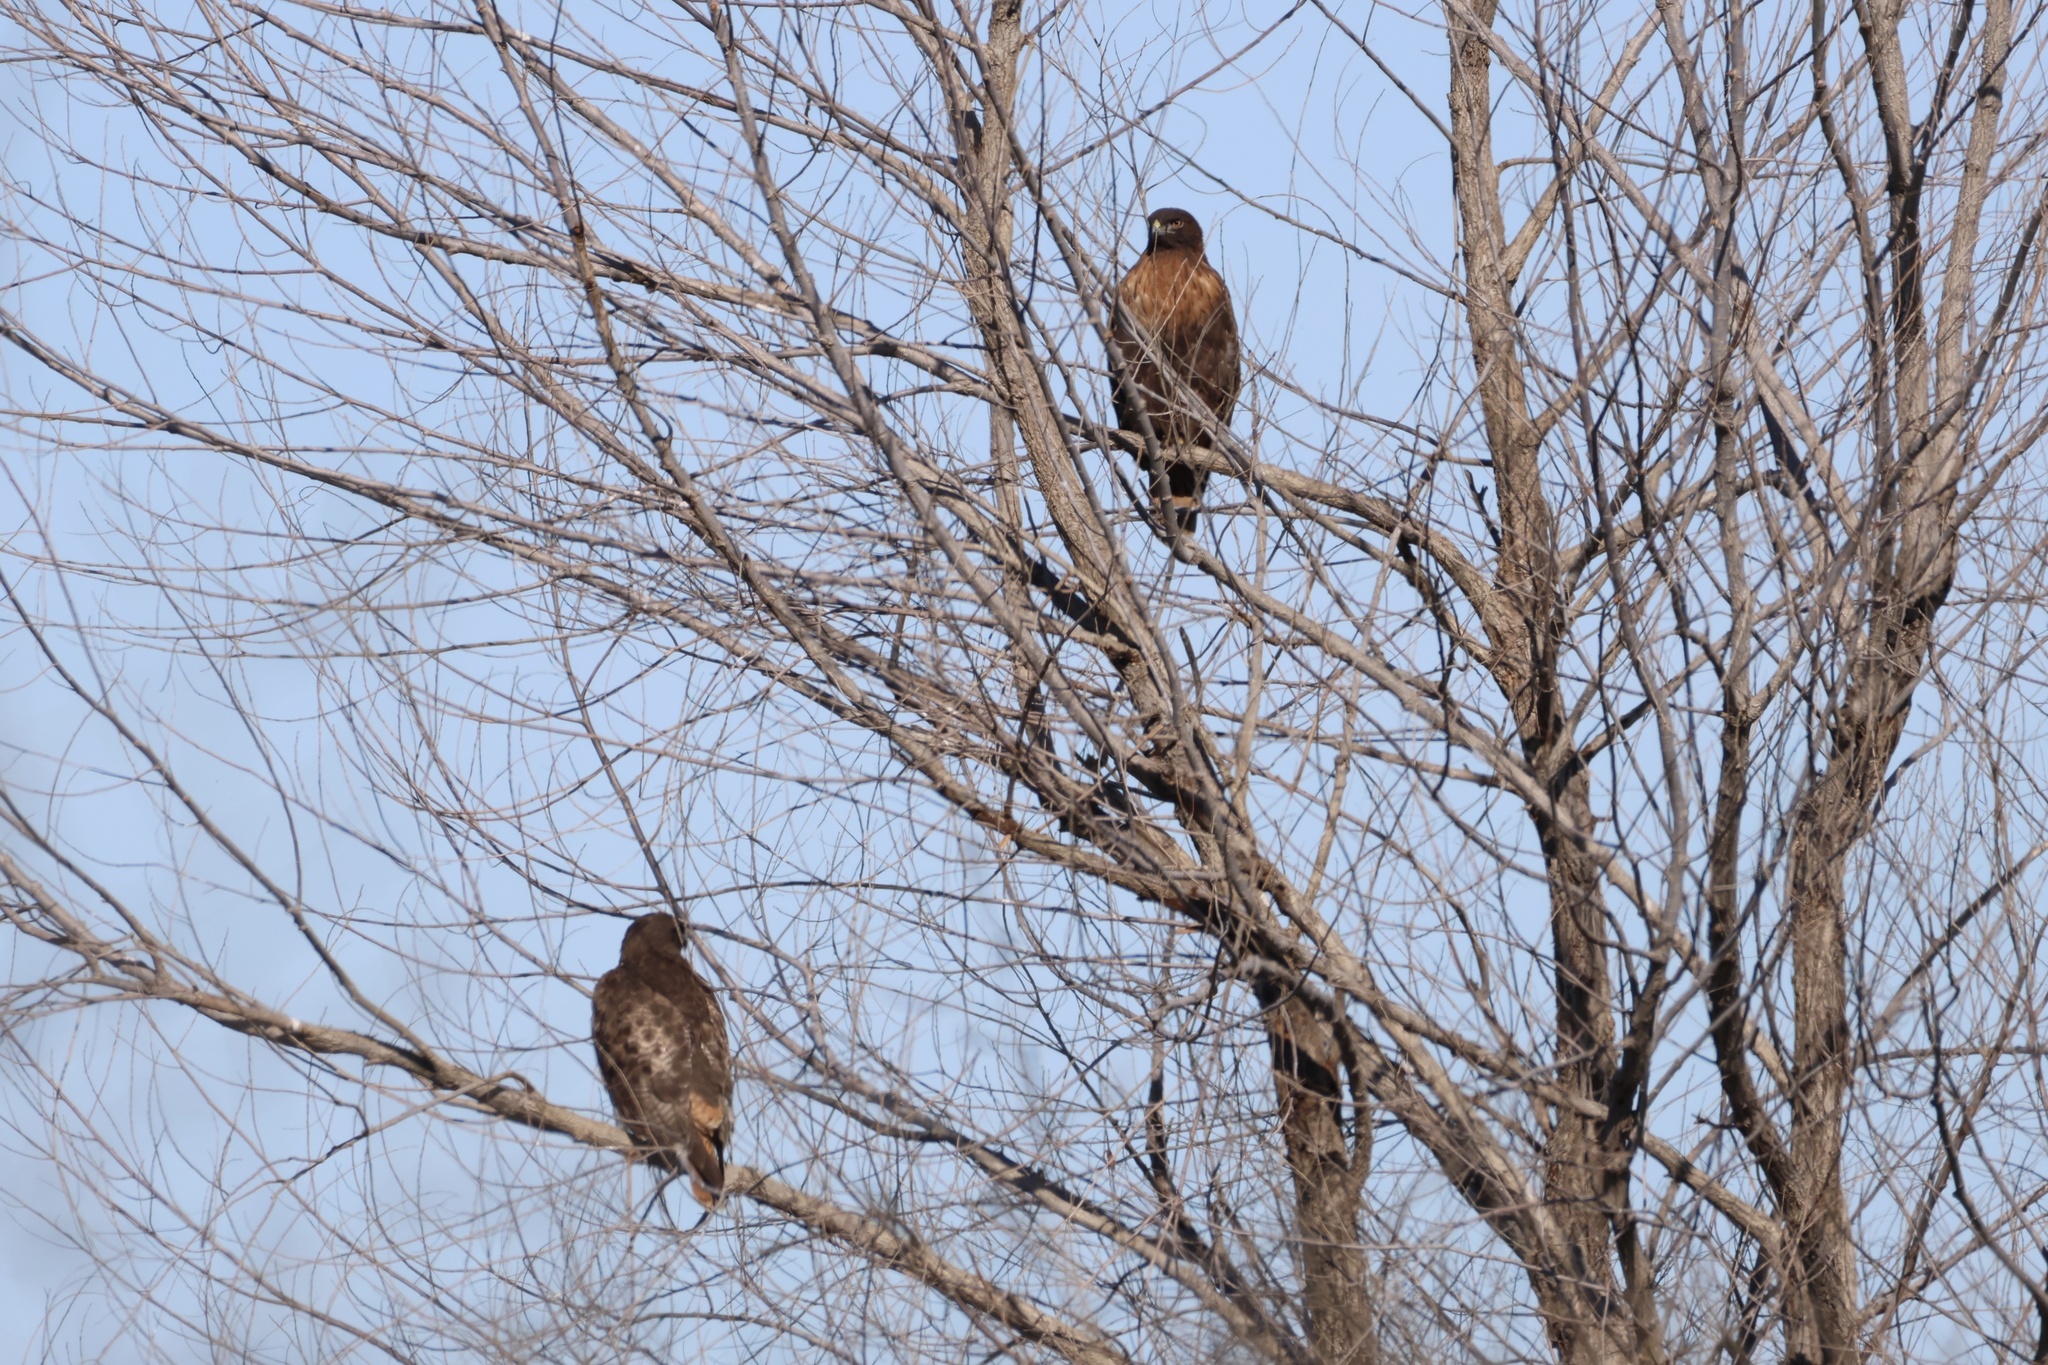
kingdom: Animalia
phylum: Chordata
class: Aves
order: Accipitriformes
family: Accipitridae
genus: Buteo
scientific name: Buteo jamaicensis
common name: Red-tailed hawk
